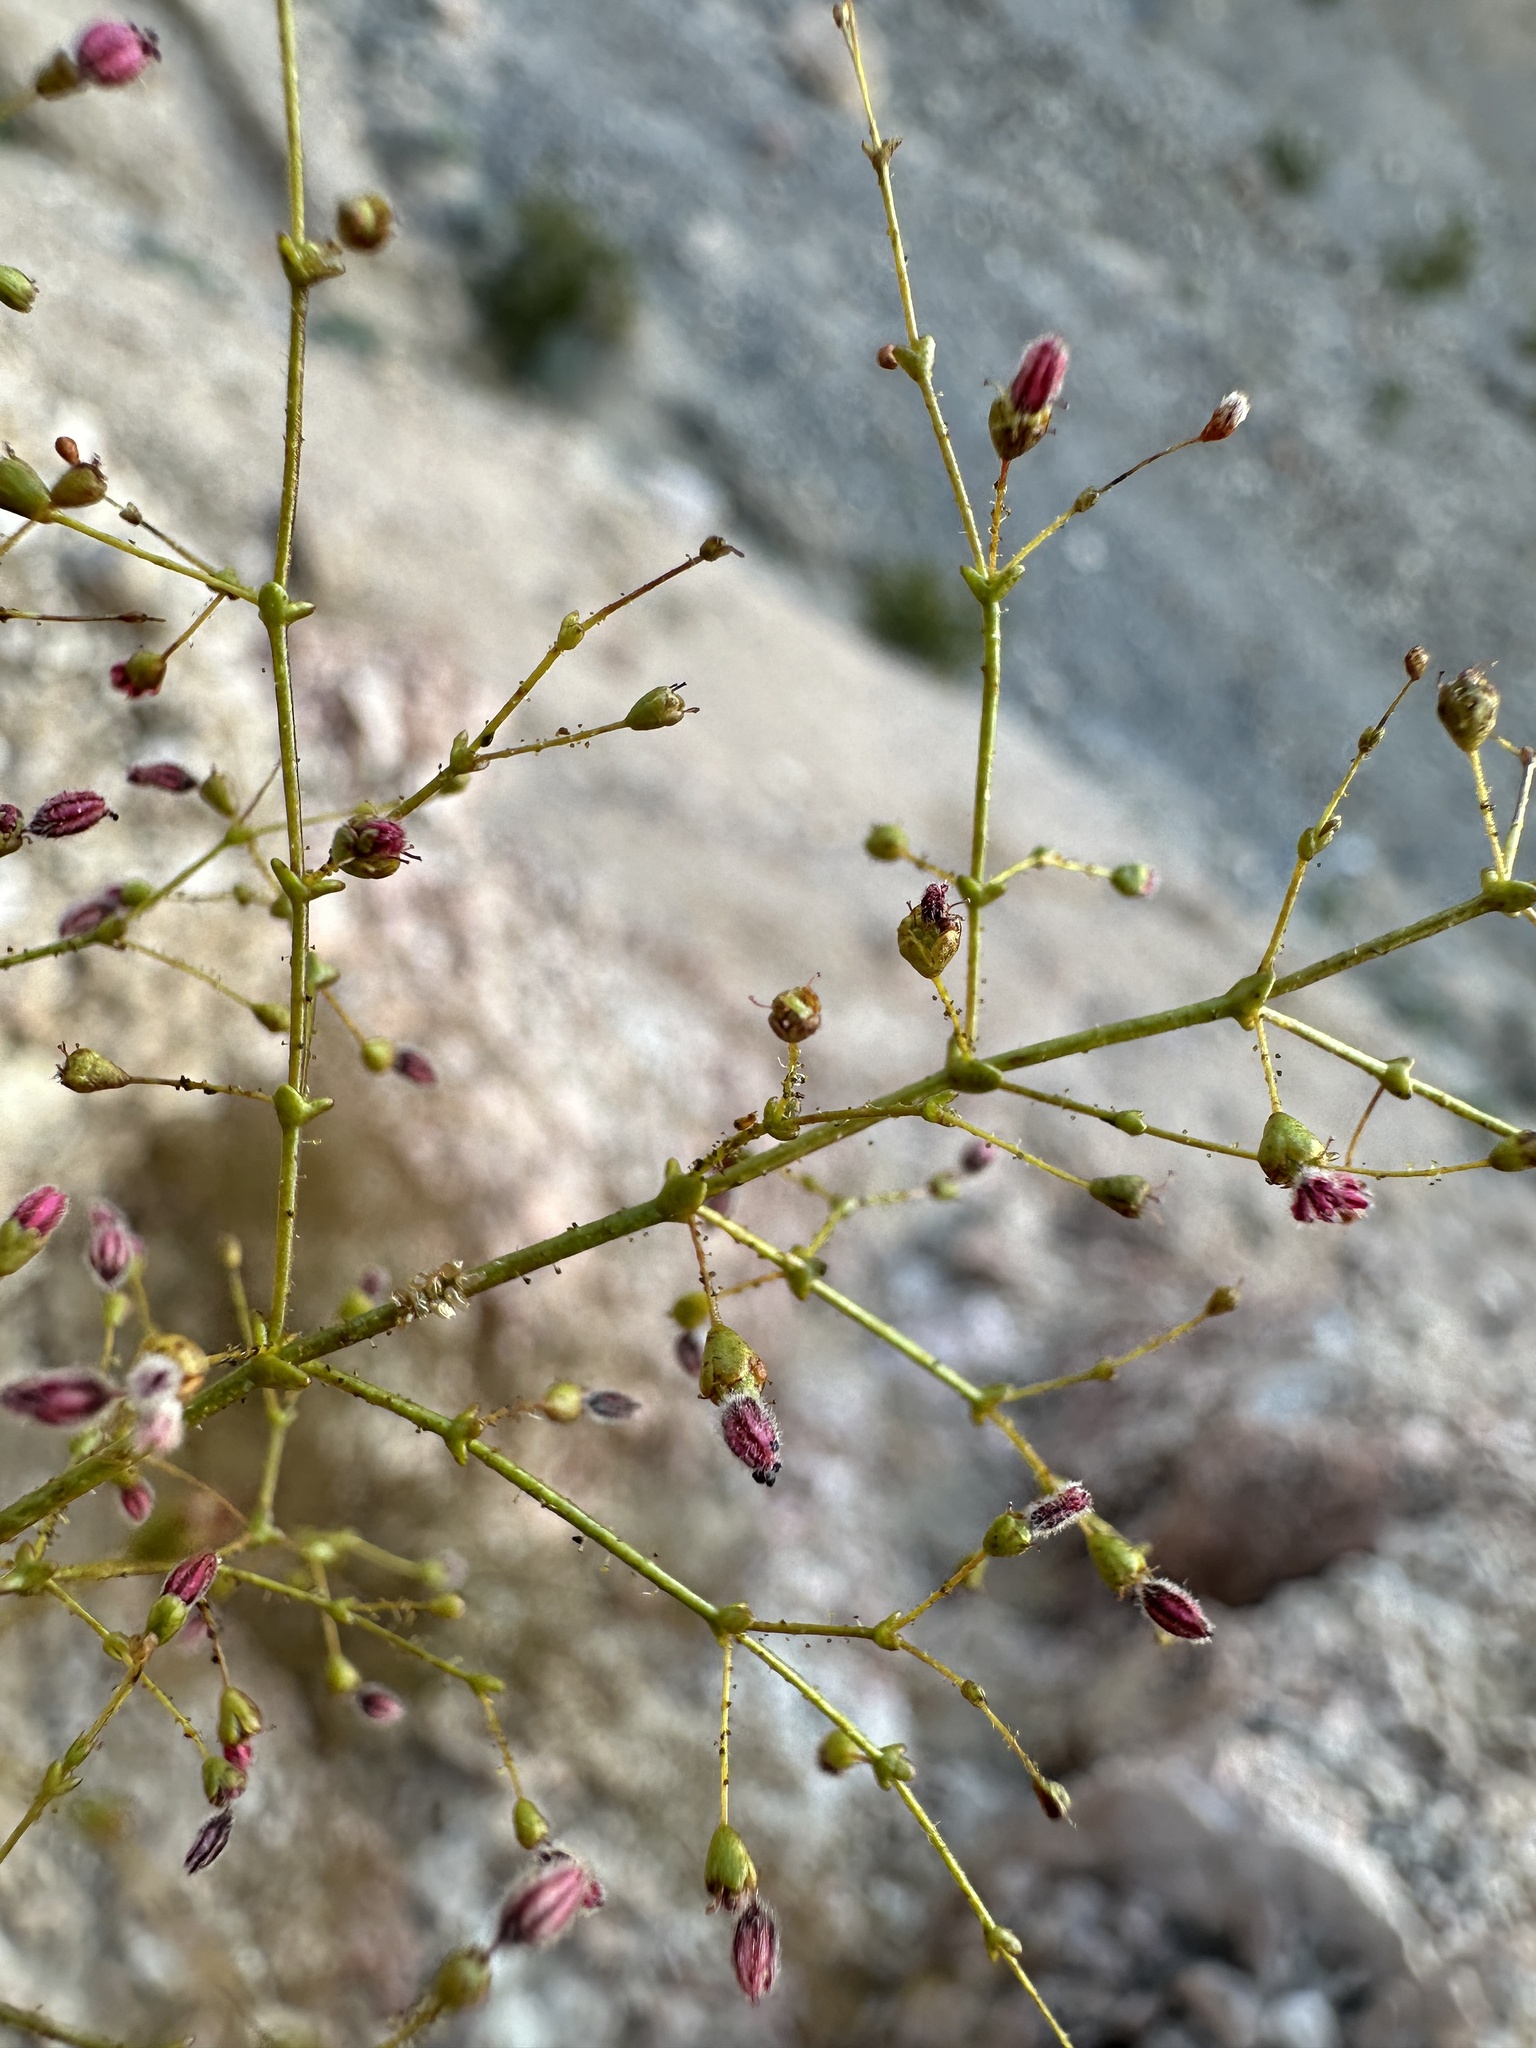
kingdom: Plantae
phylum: Tracheophyta
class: Magnoliopsida
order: Caryophyllales
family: Polygonaceae
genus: Eriogonum
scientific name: Eriogonum glandulosum
